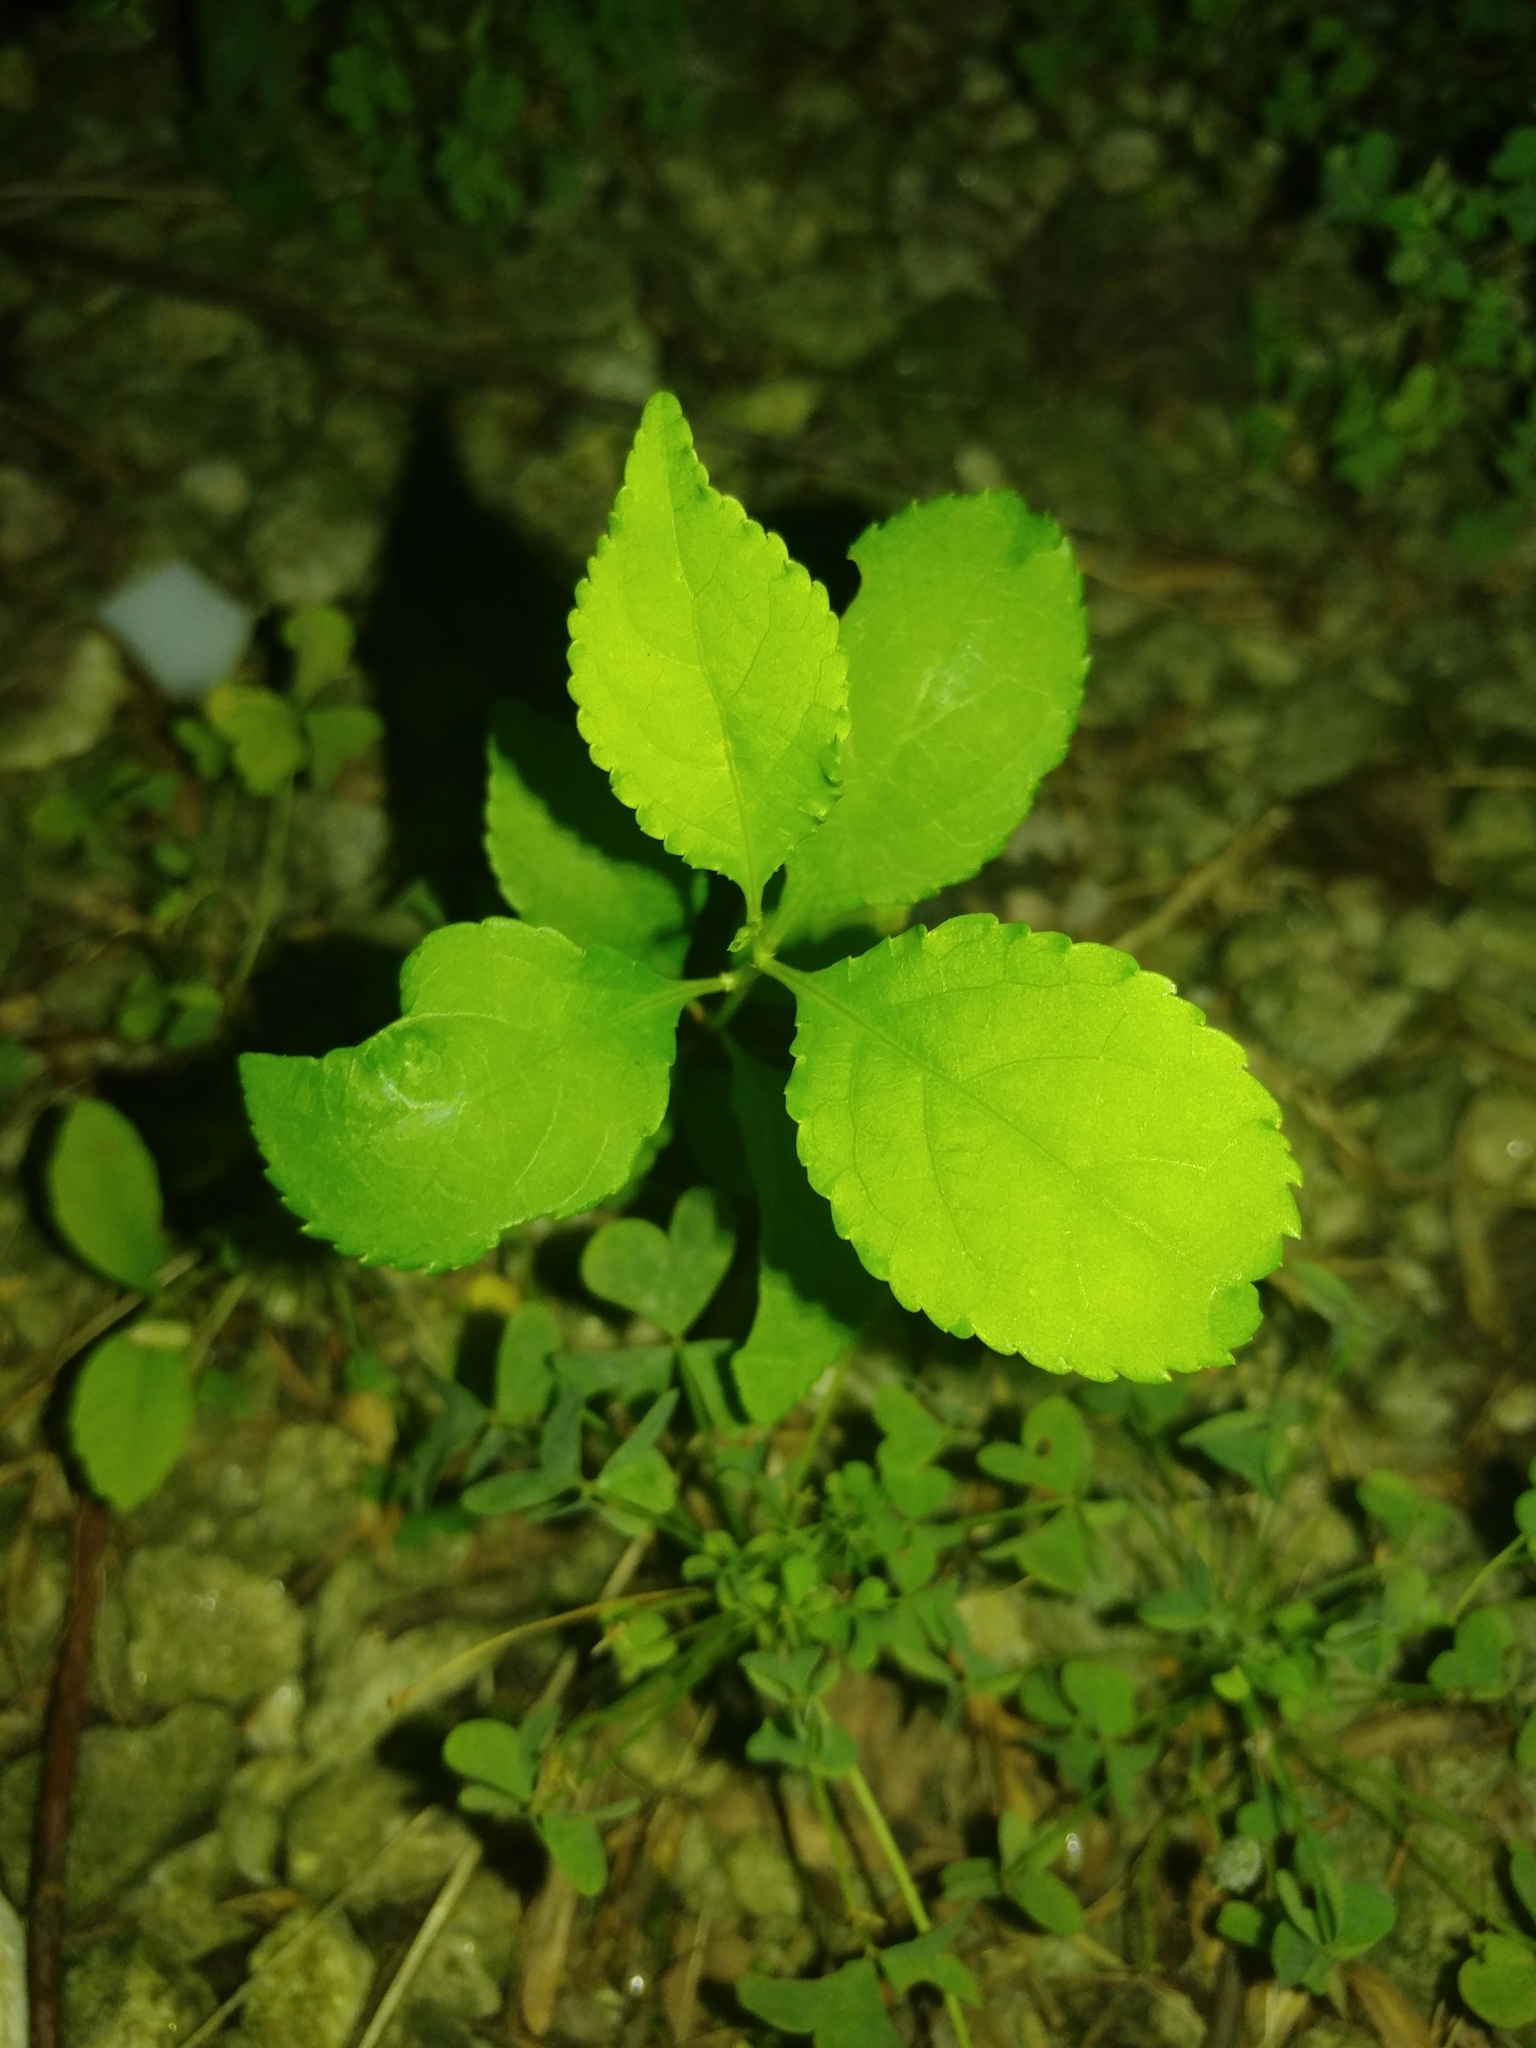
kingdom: Plantae
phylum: Tracheophyta
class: Magnoliopsida
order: Celastrales
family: Celastraceae
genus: Celastrus
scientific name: Celastrus orbiculatus
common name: Oriental bittersweet
